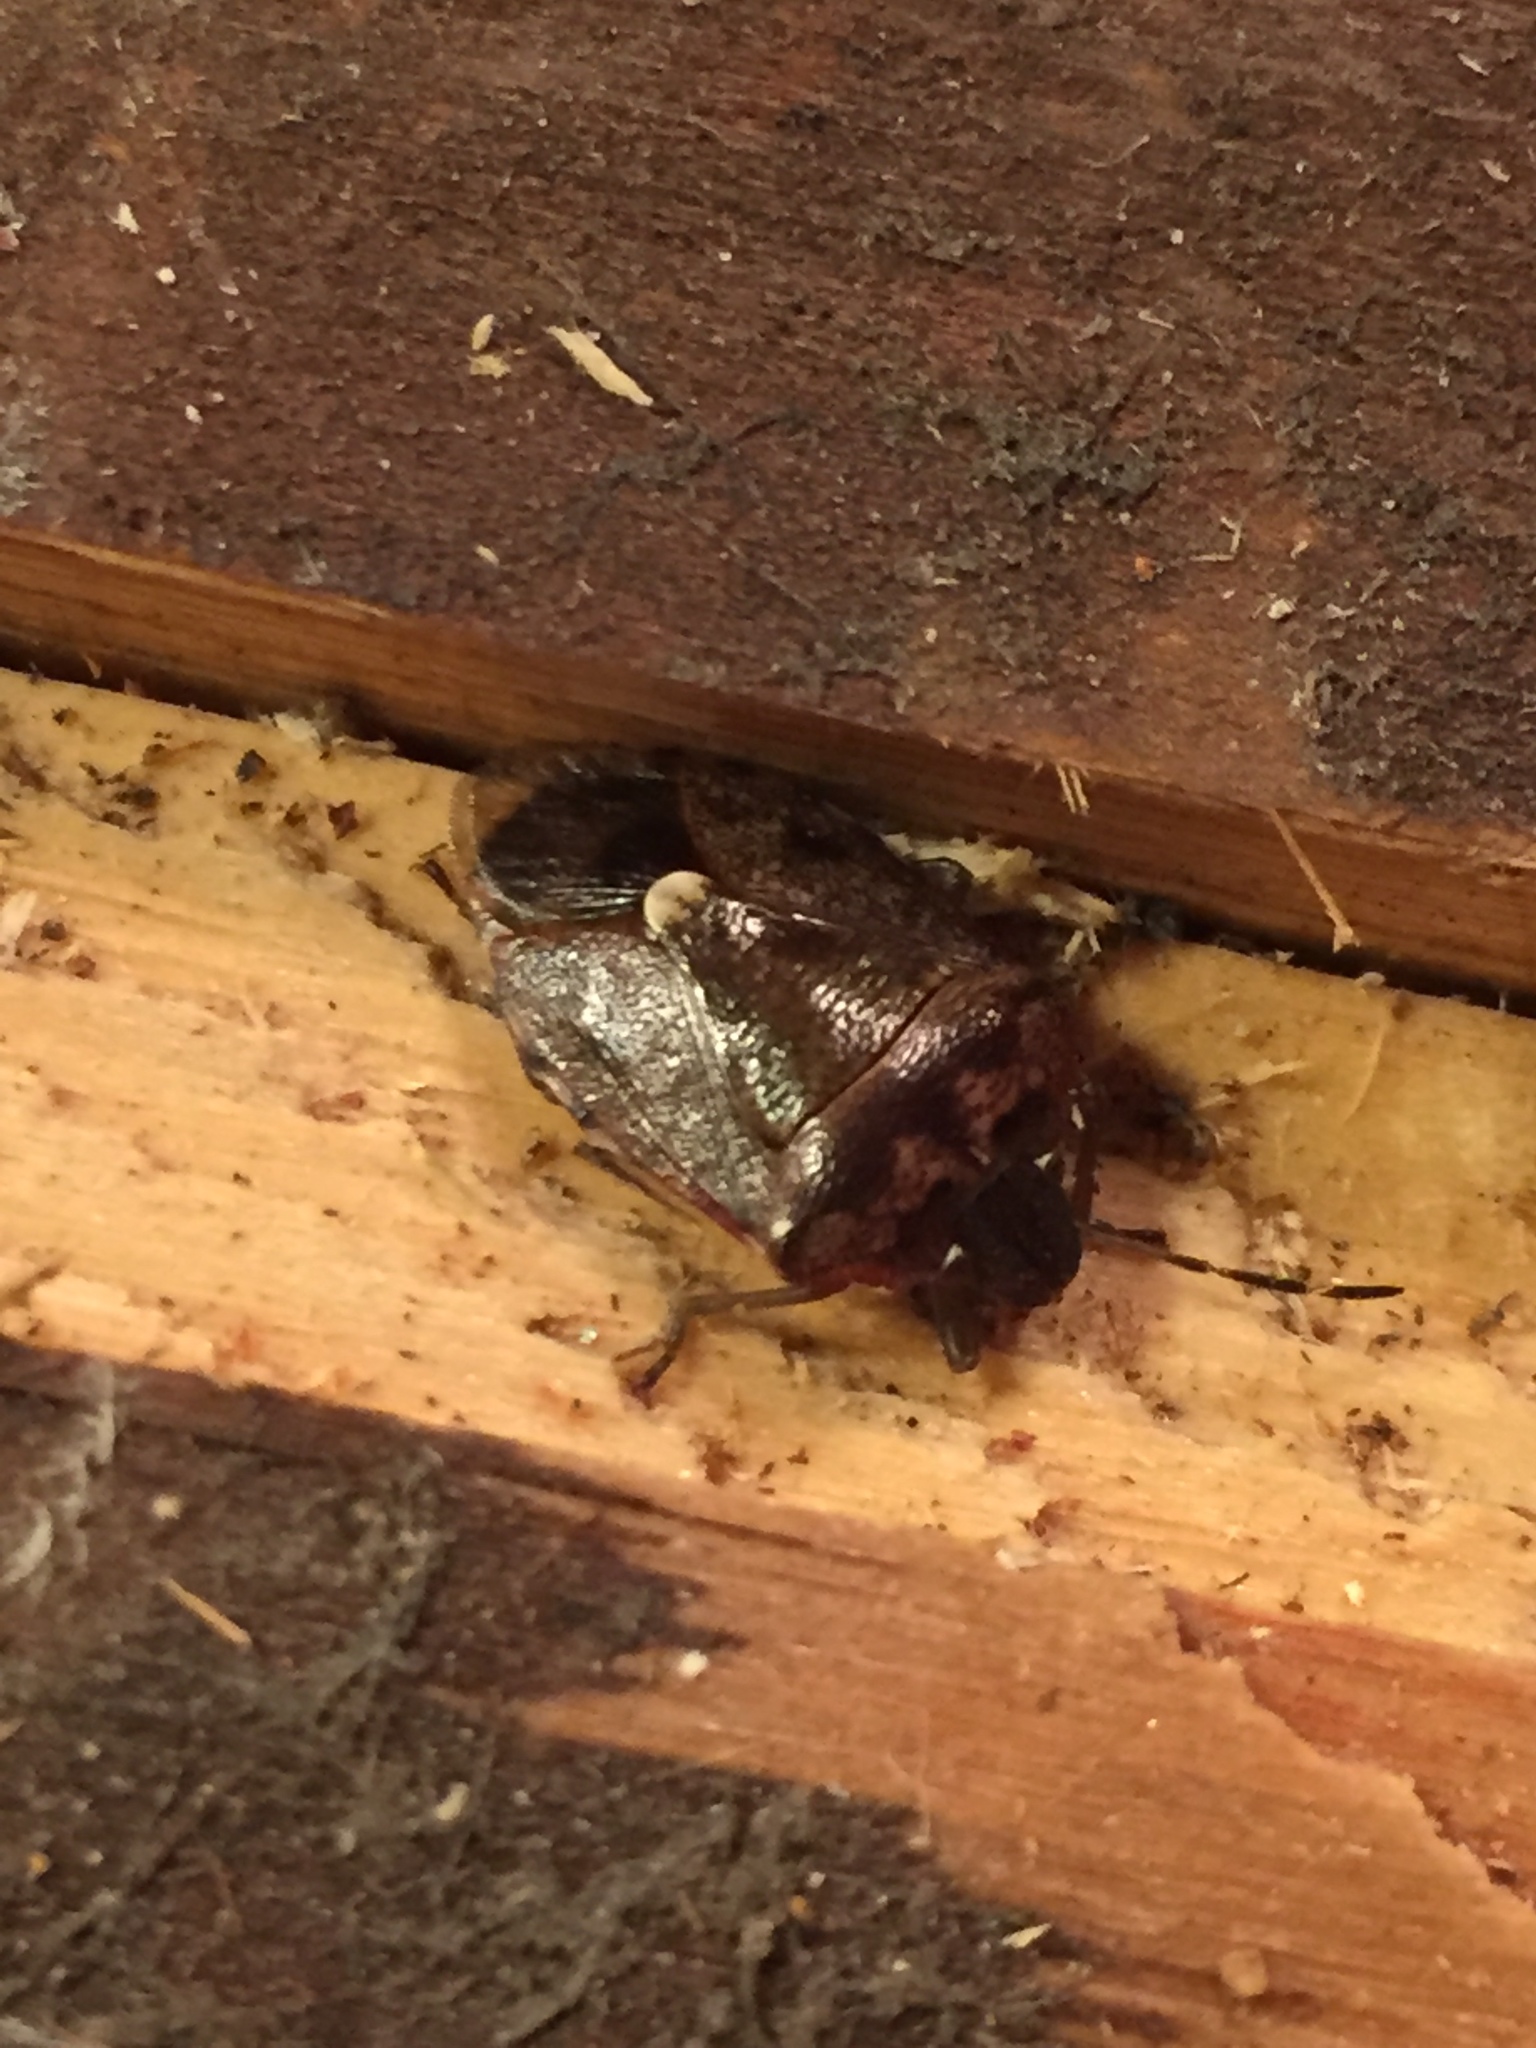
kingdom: Animalia
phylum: Arthropoda
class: Insecta
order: Hemiptera
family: Pentatomidae
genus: Banasa
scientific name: Banasa sordida
